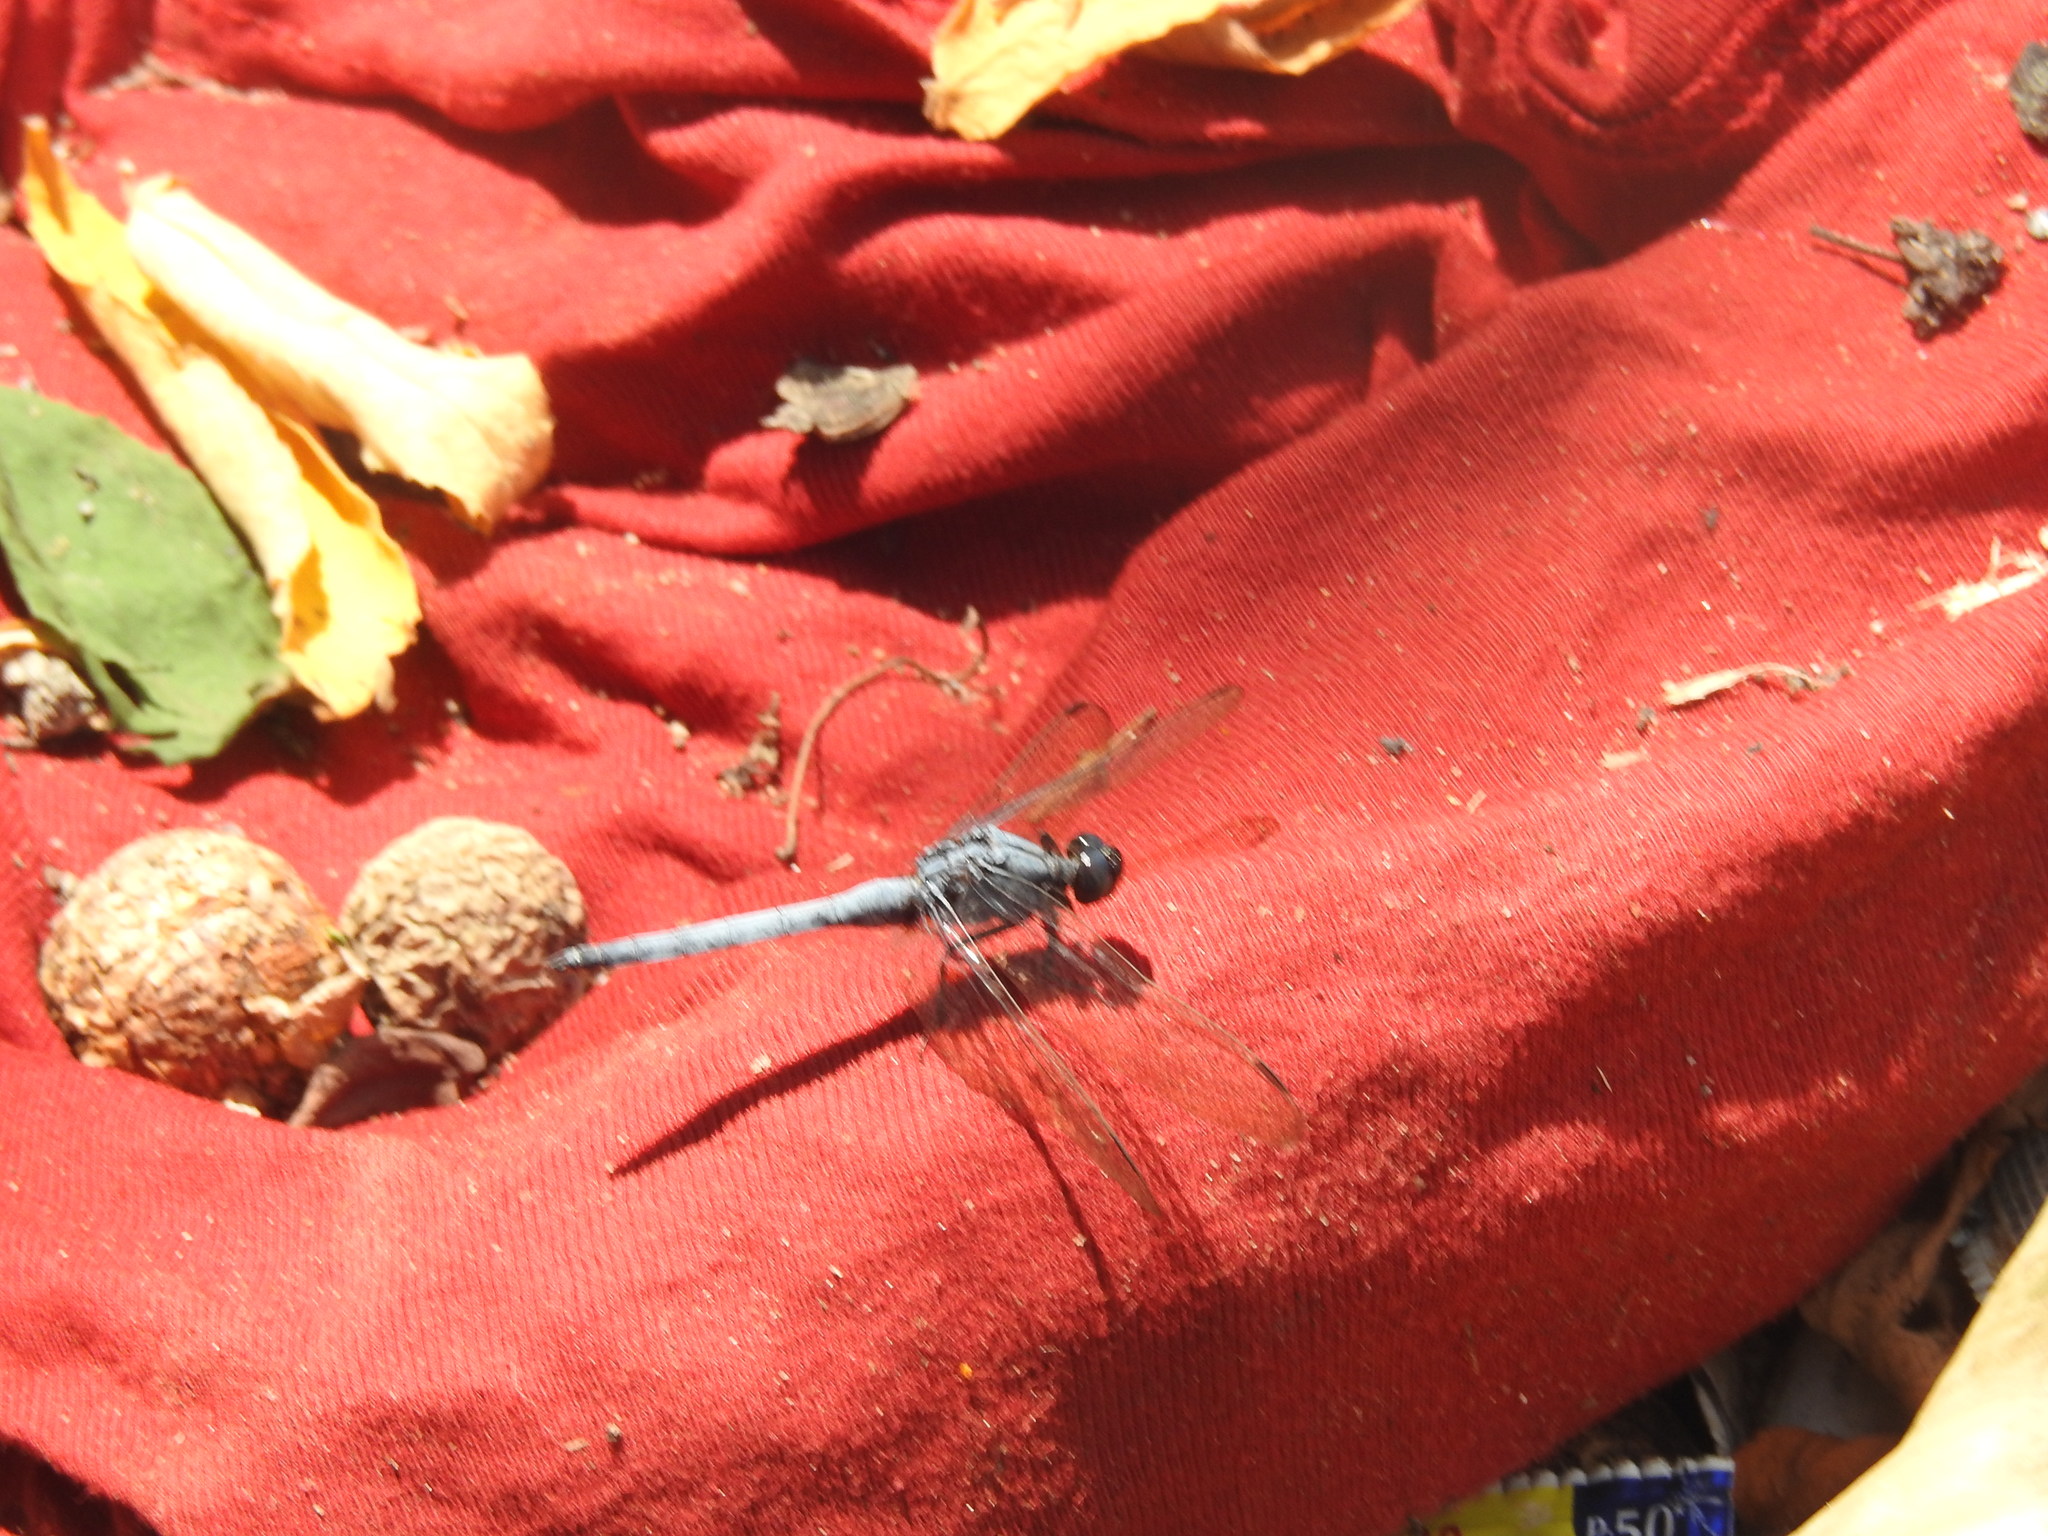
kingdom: Animalia
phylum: Arthropoda
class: Insecta
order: Odonata
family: Libellulidae
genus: Orthetrum
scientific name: Orthetrum glaucum
